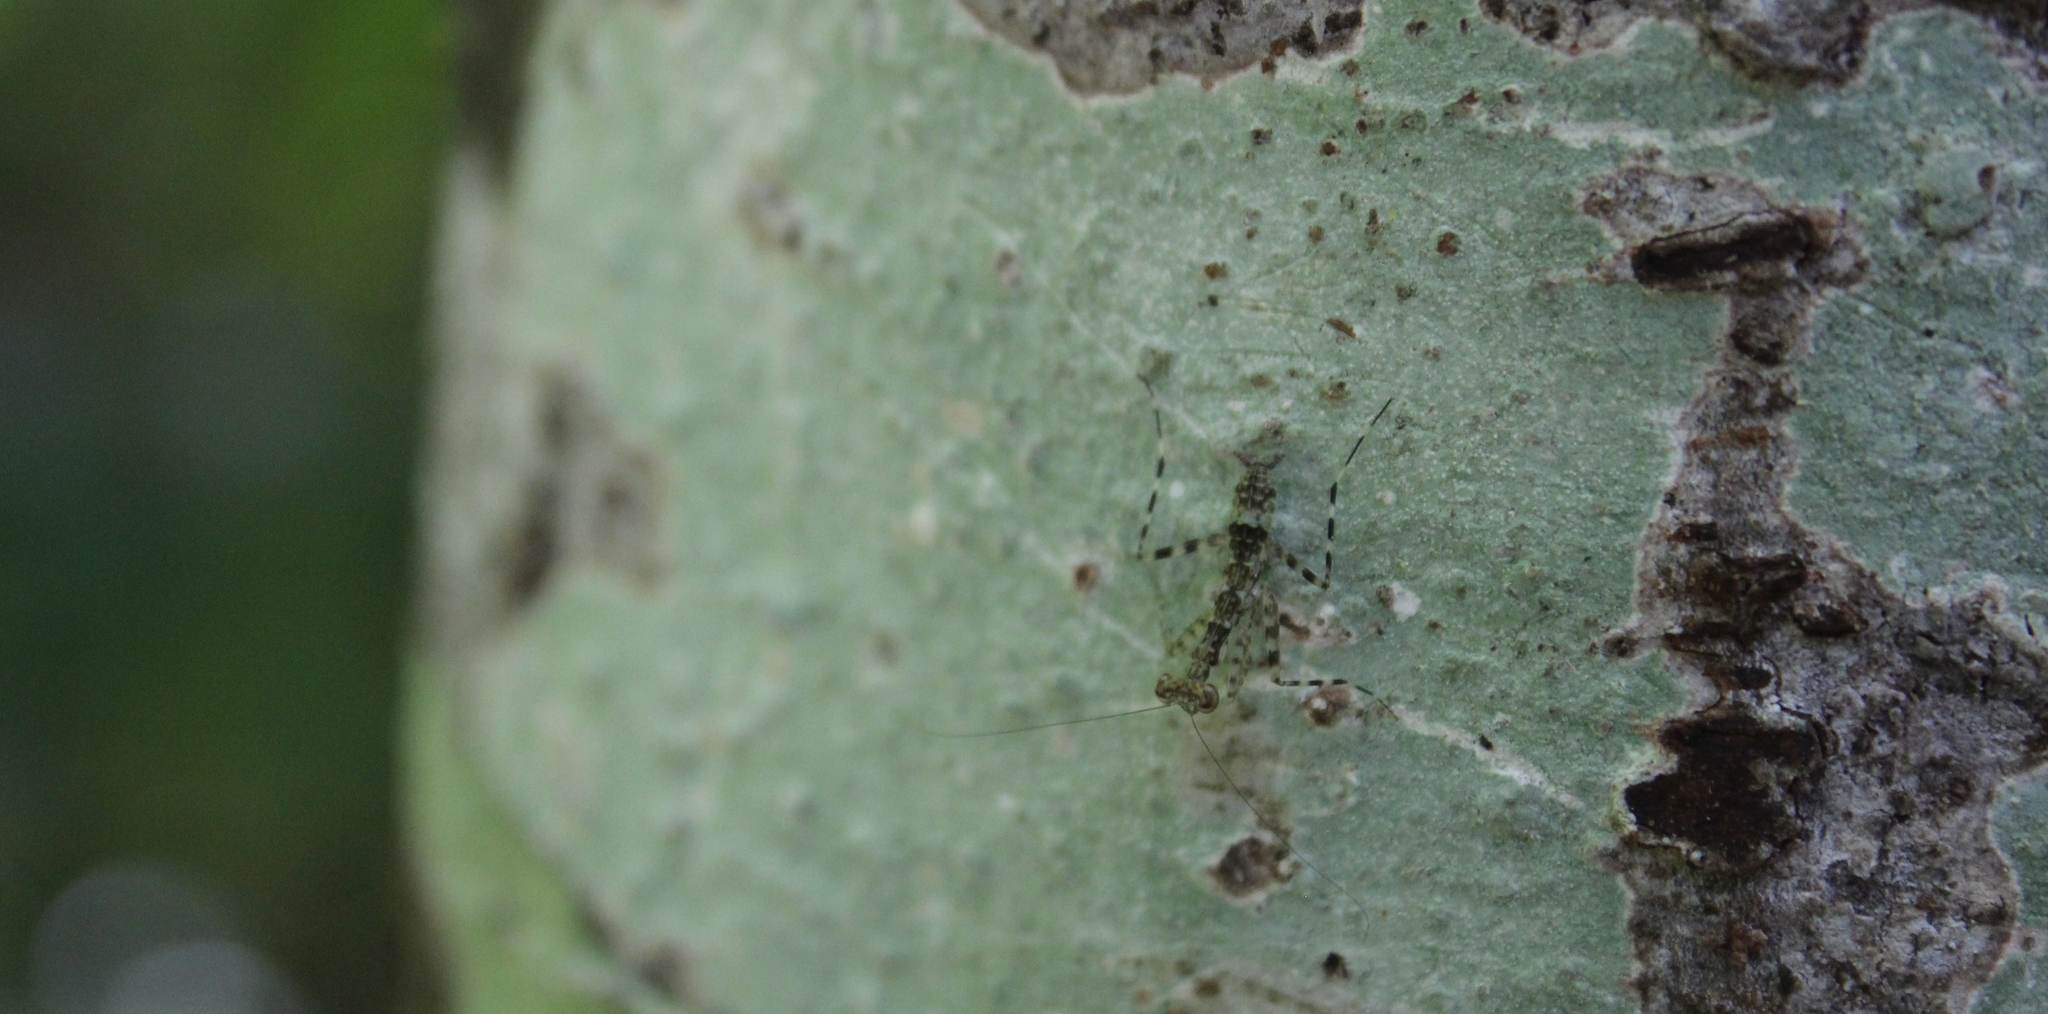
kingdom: Animalia
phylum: Arthropoda
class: Insecta
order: Mantodea
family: Liturgusidae
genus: Liturgusa
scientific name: Liturgusa maya
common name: Mantis
